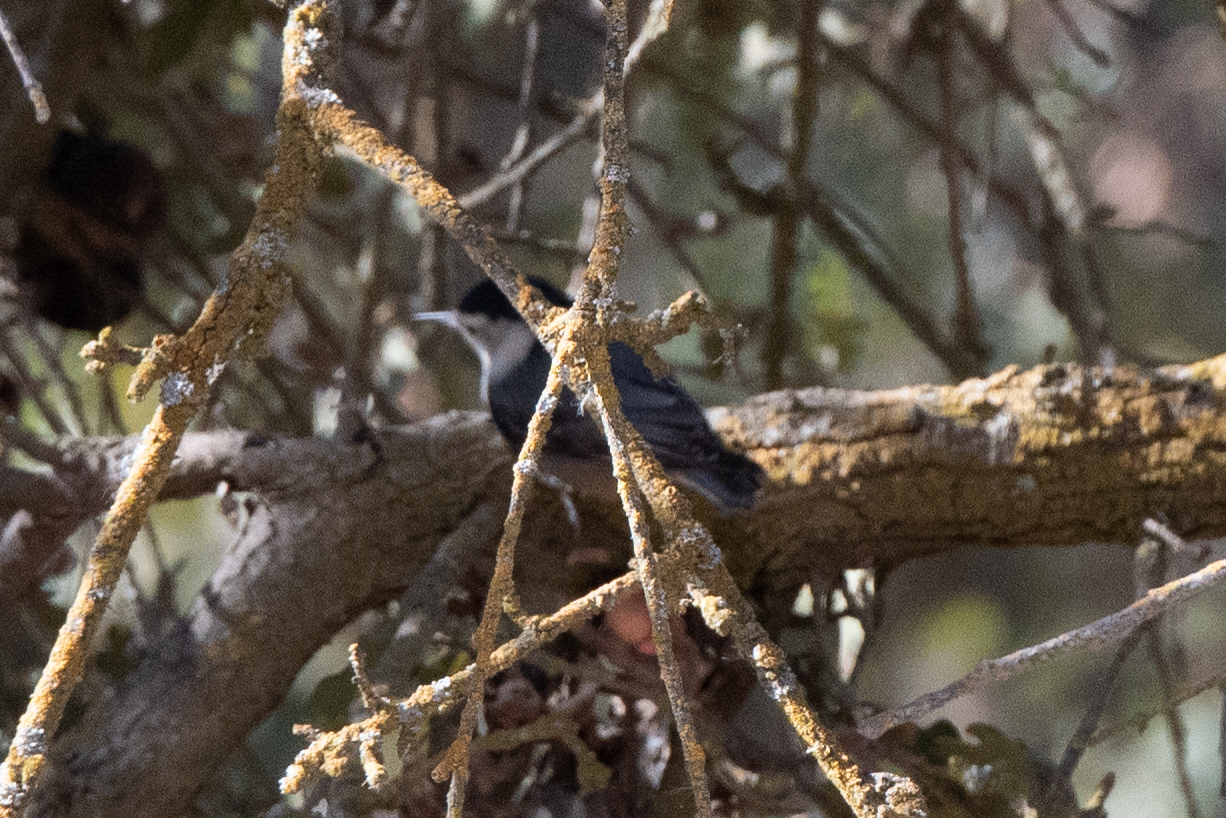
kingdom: Animalia
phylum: Chordata
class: Aves
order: Passeriformes
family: Sittidae
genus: Sitta
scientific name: Sitta carolinensis
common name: White-breasted nuthatch
